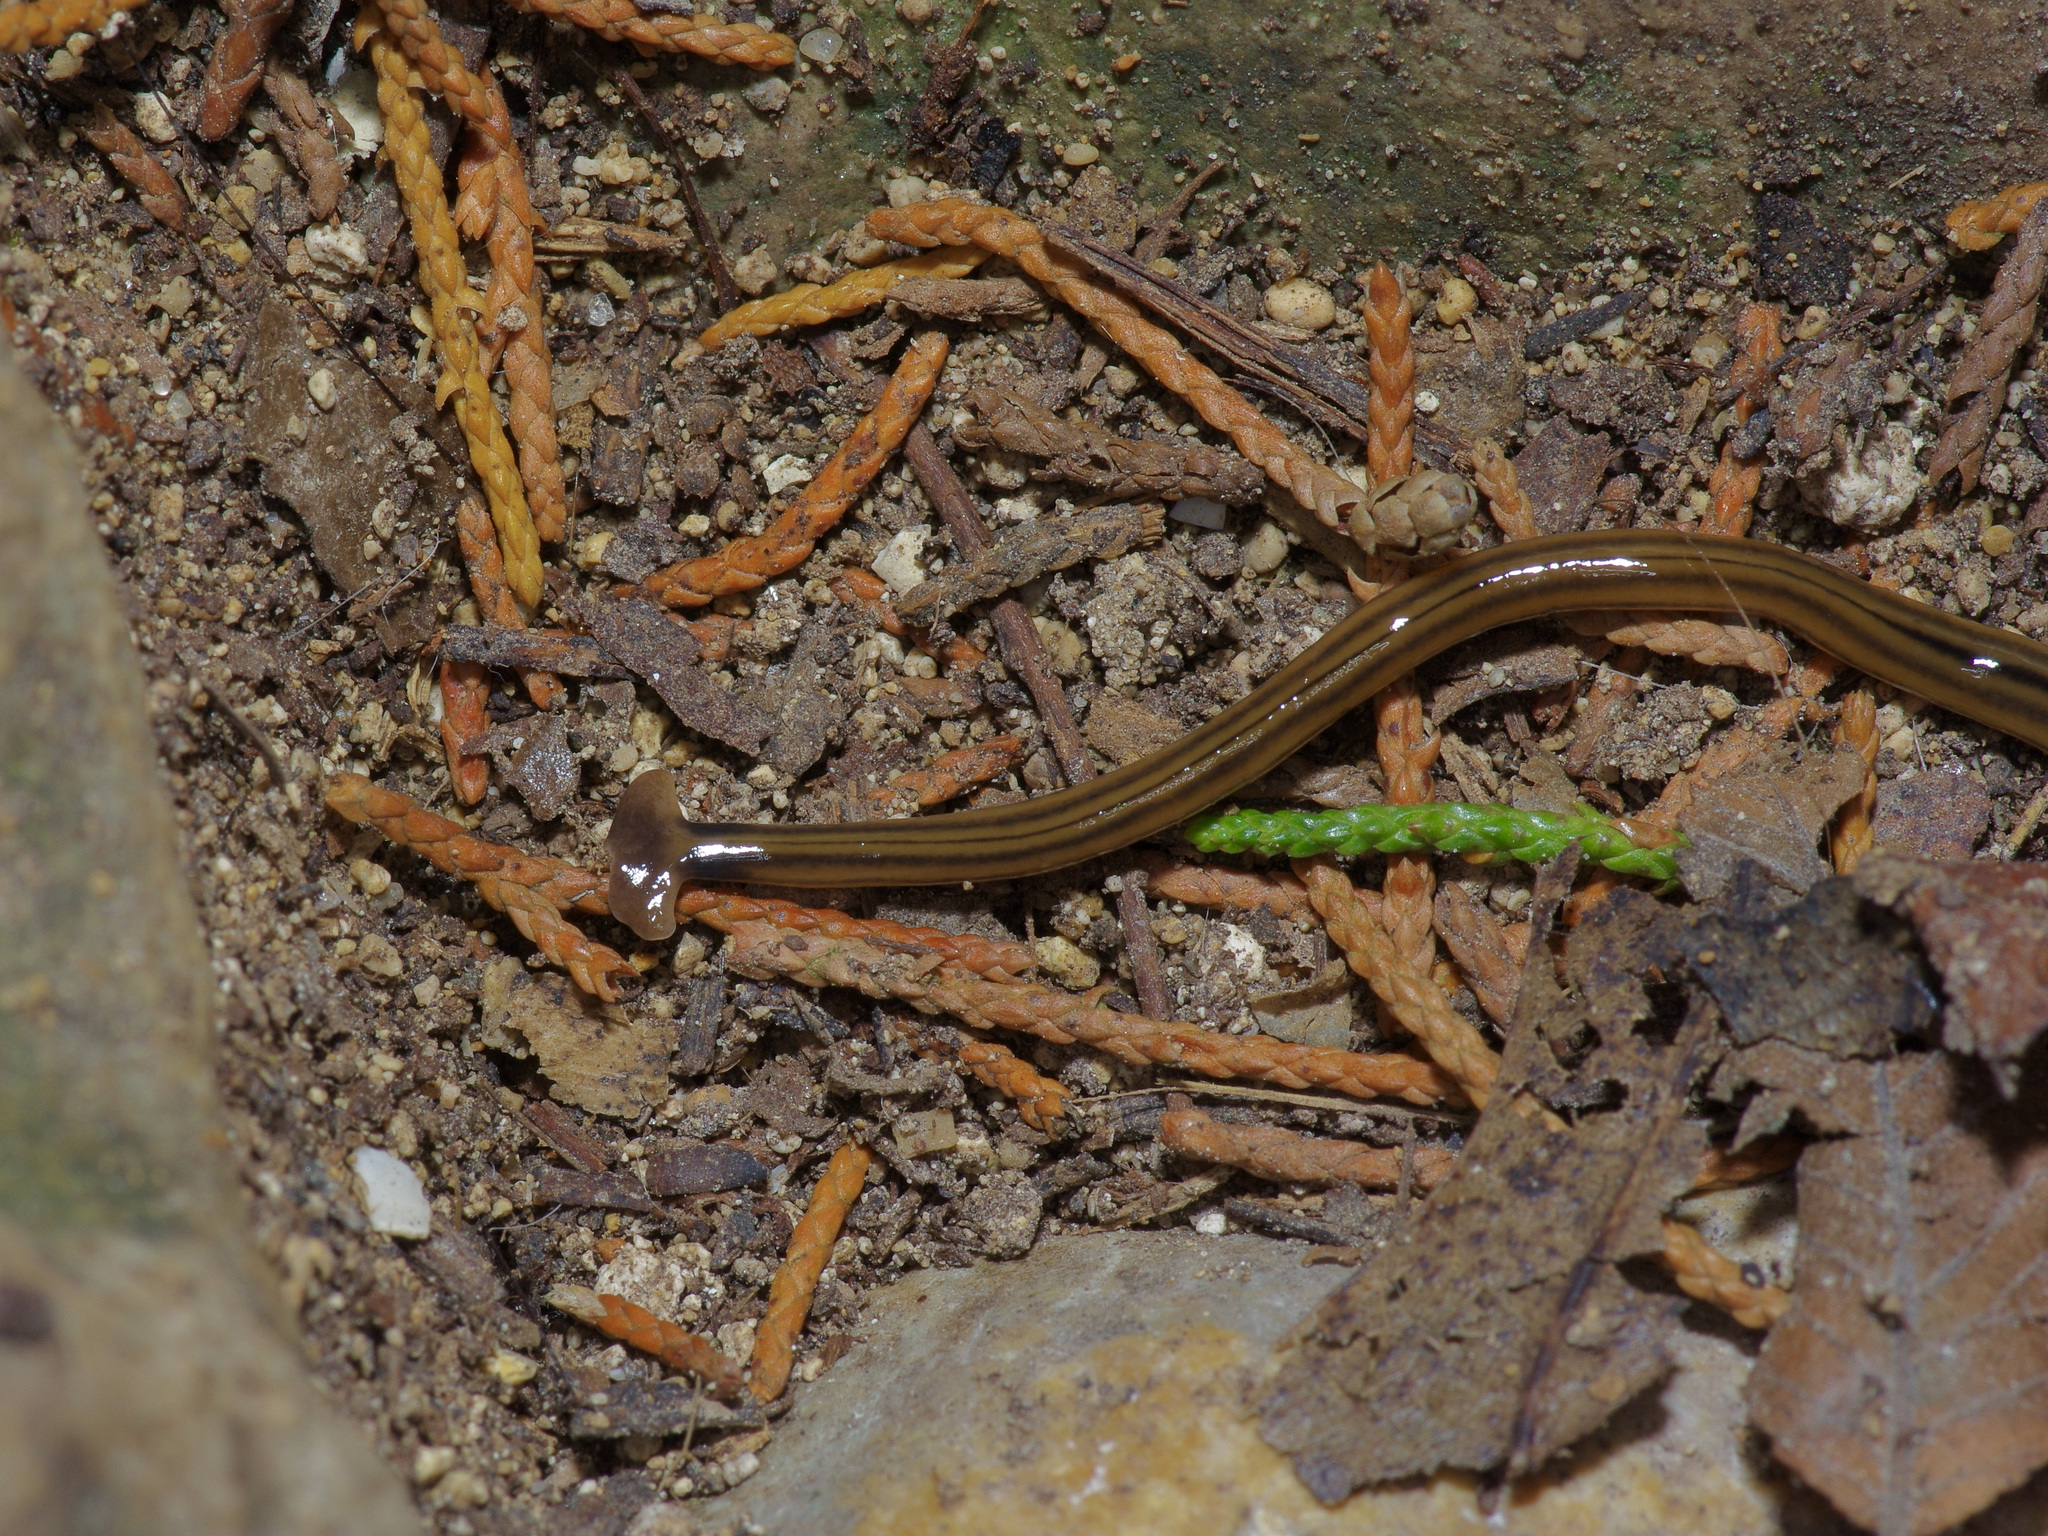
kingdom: Animalia
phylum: Platyhelminthes
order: Tricladida
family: Geoplanidae
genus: Bipalium
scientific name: Bipalium kewense
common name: Hammerhead flatworm
